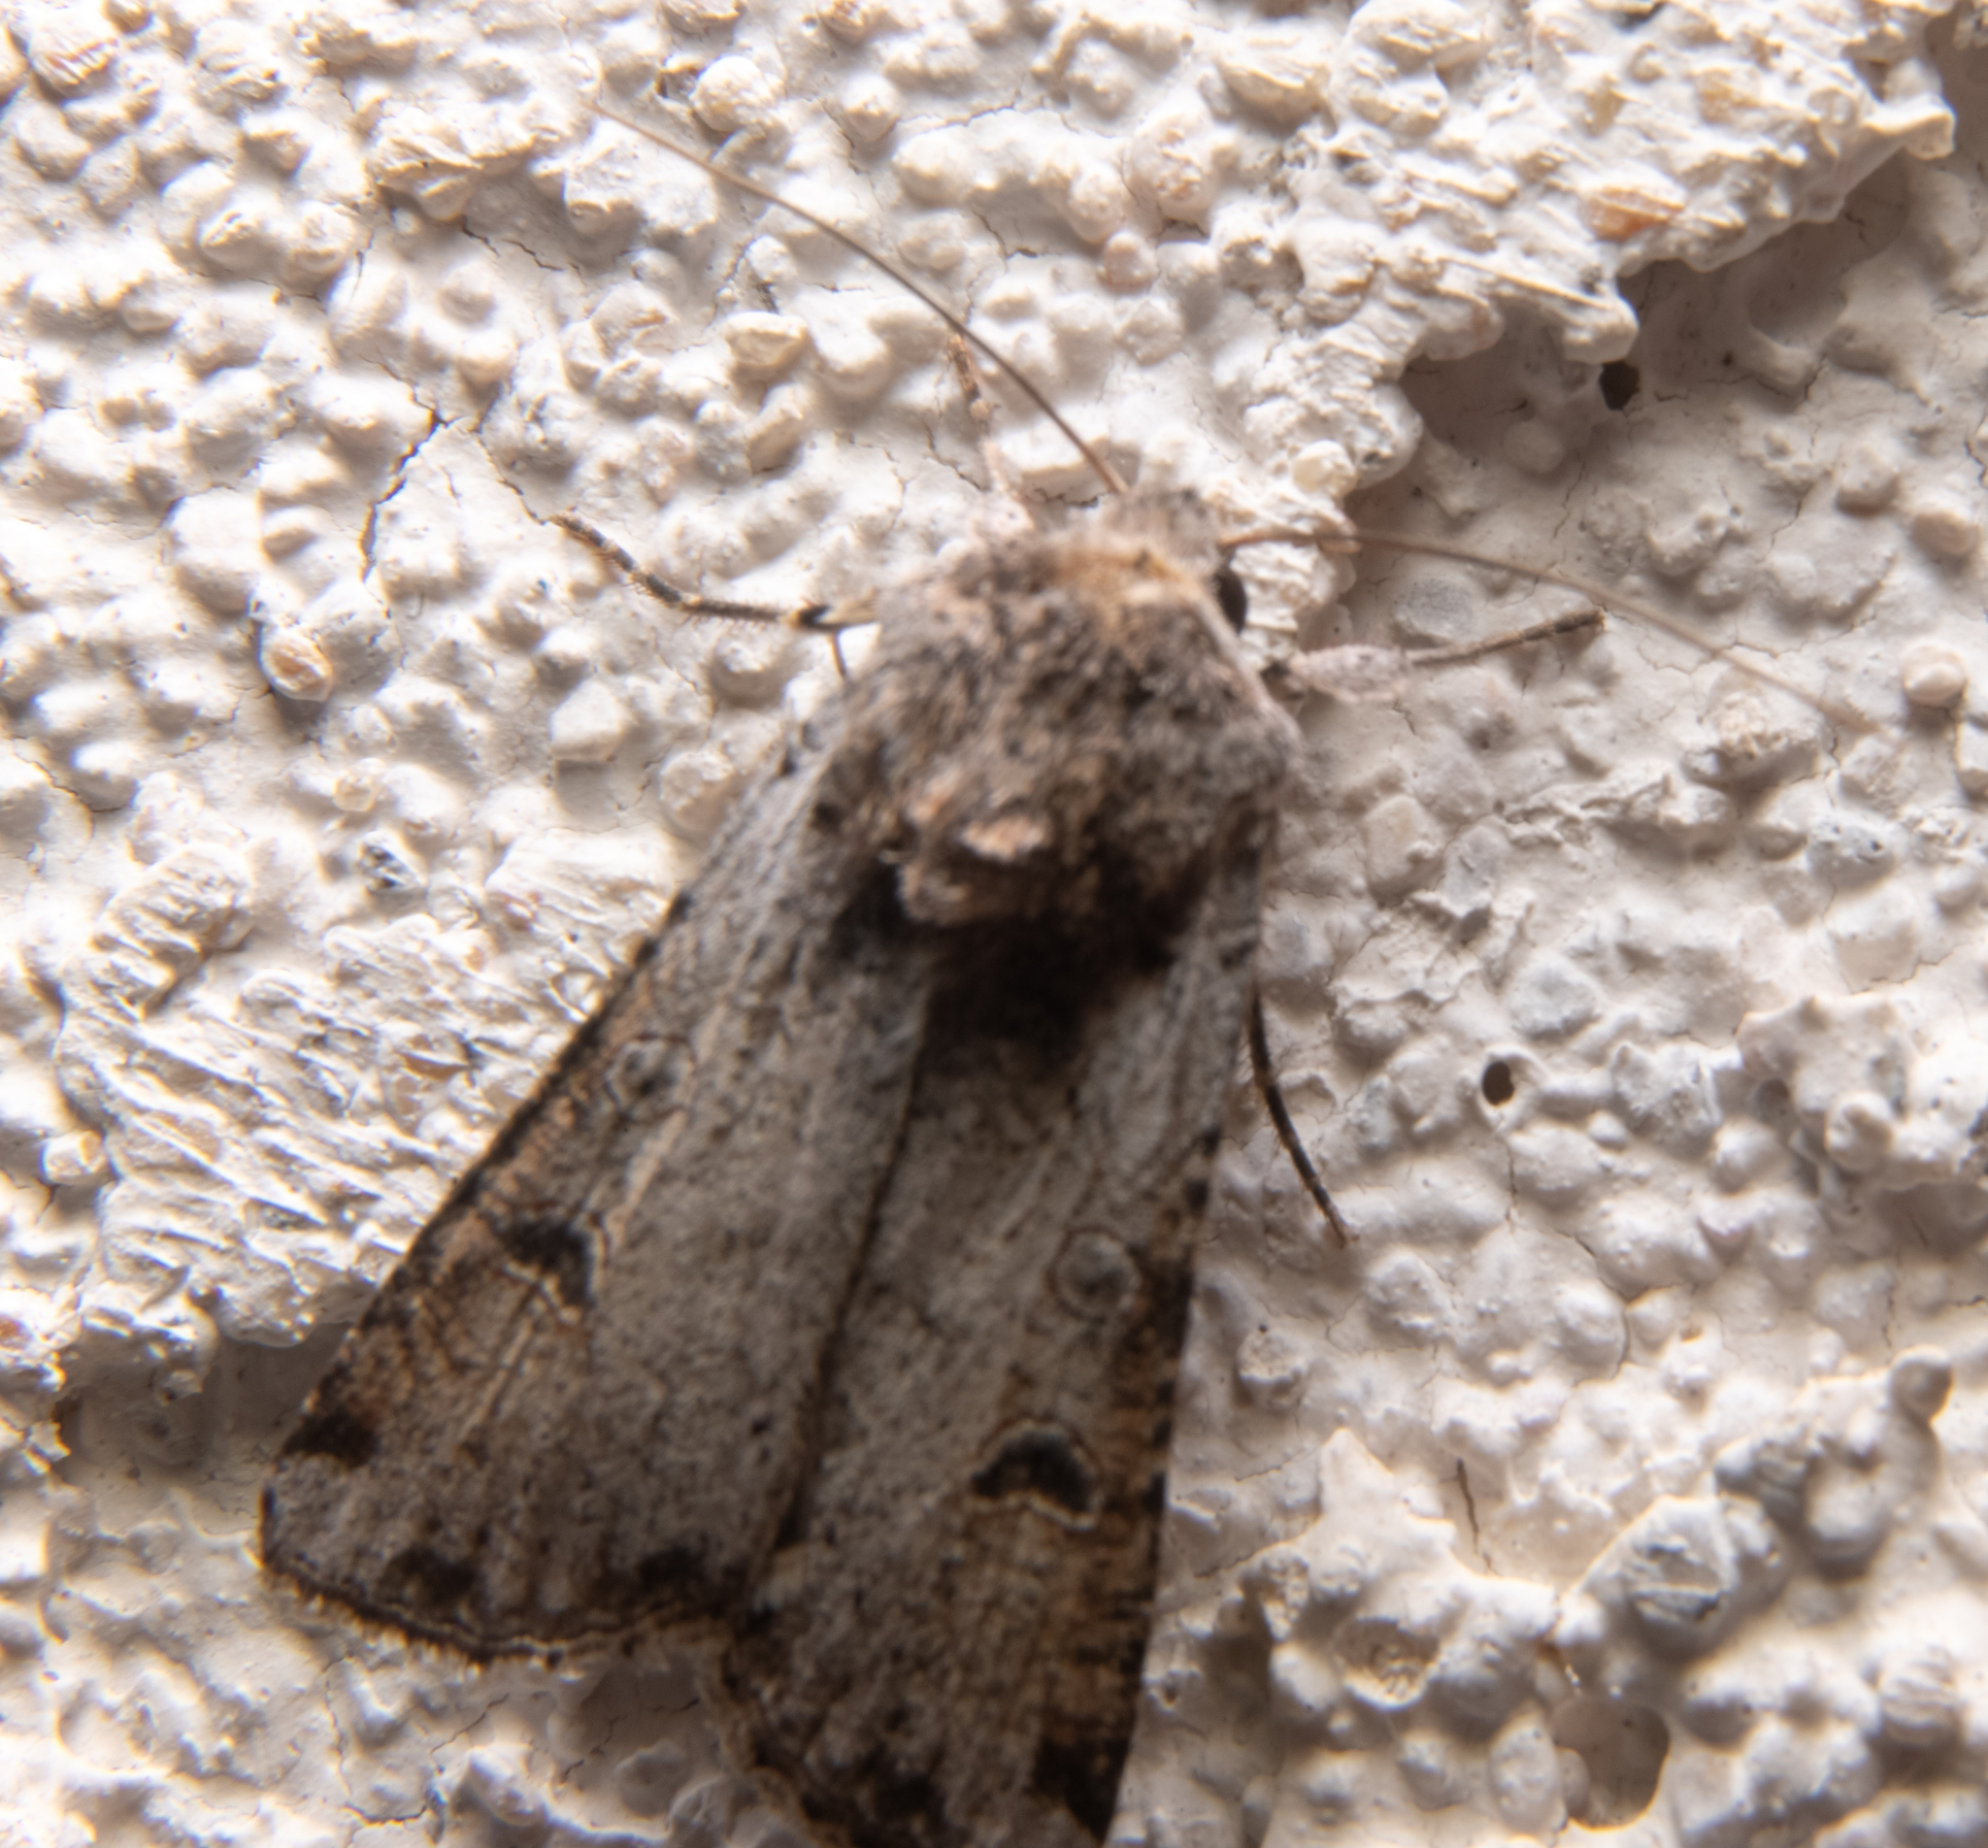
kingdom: Animalia
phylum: Arthropoda
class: Insecta
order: Lepidoptera
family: Noctuidae
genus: Hemieuxoa
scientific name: Hemieuxoa rudens
